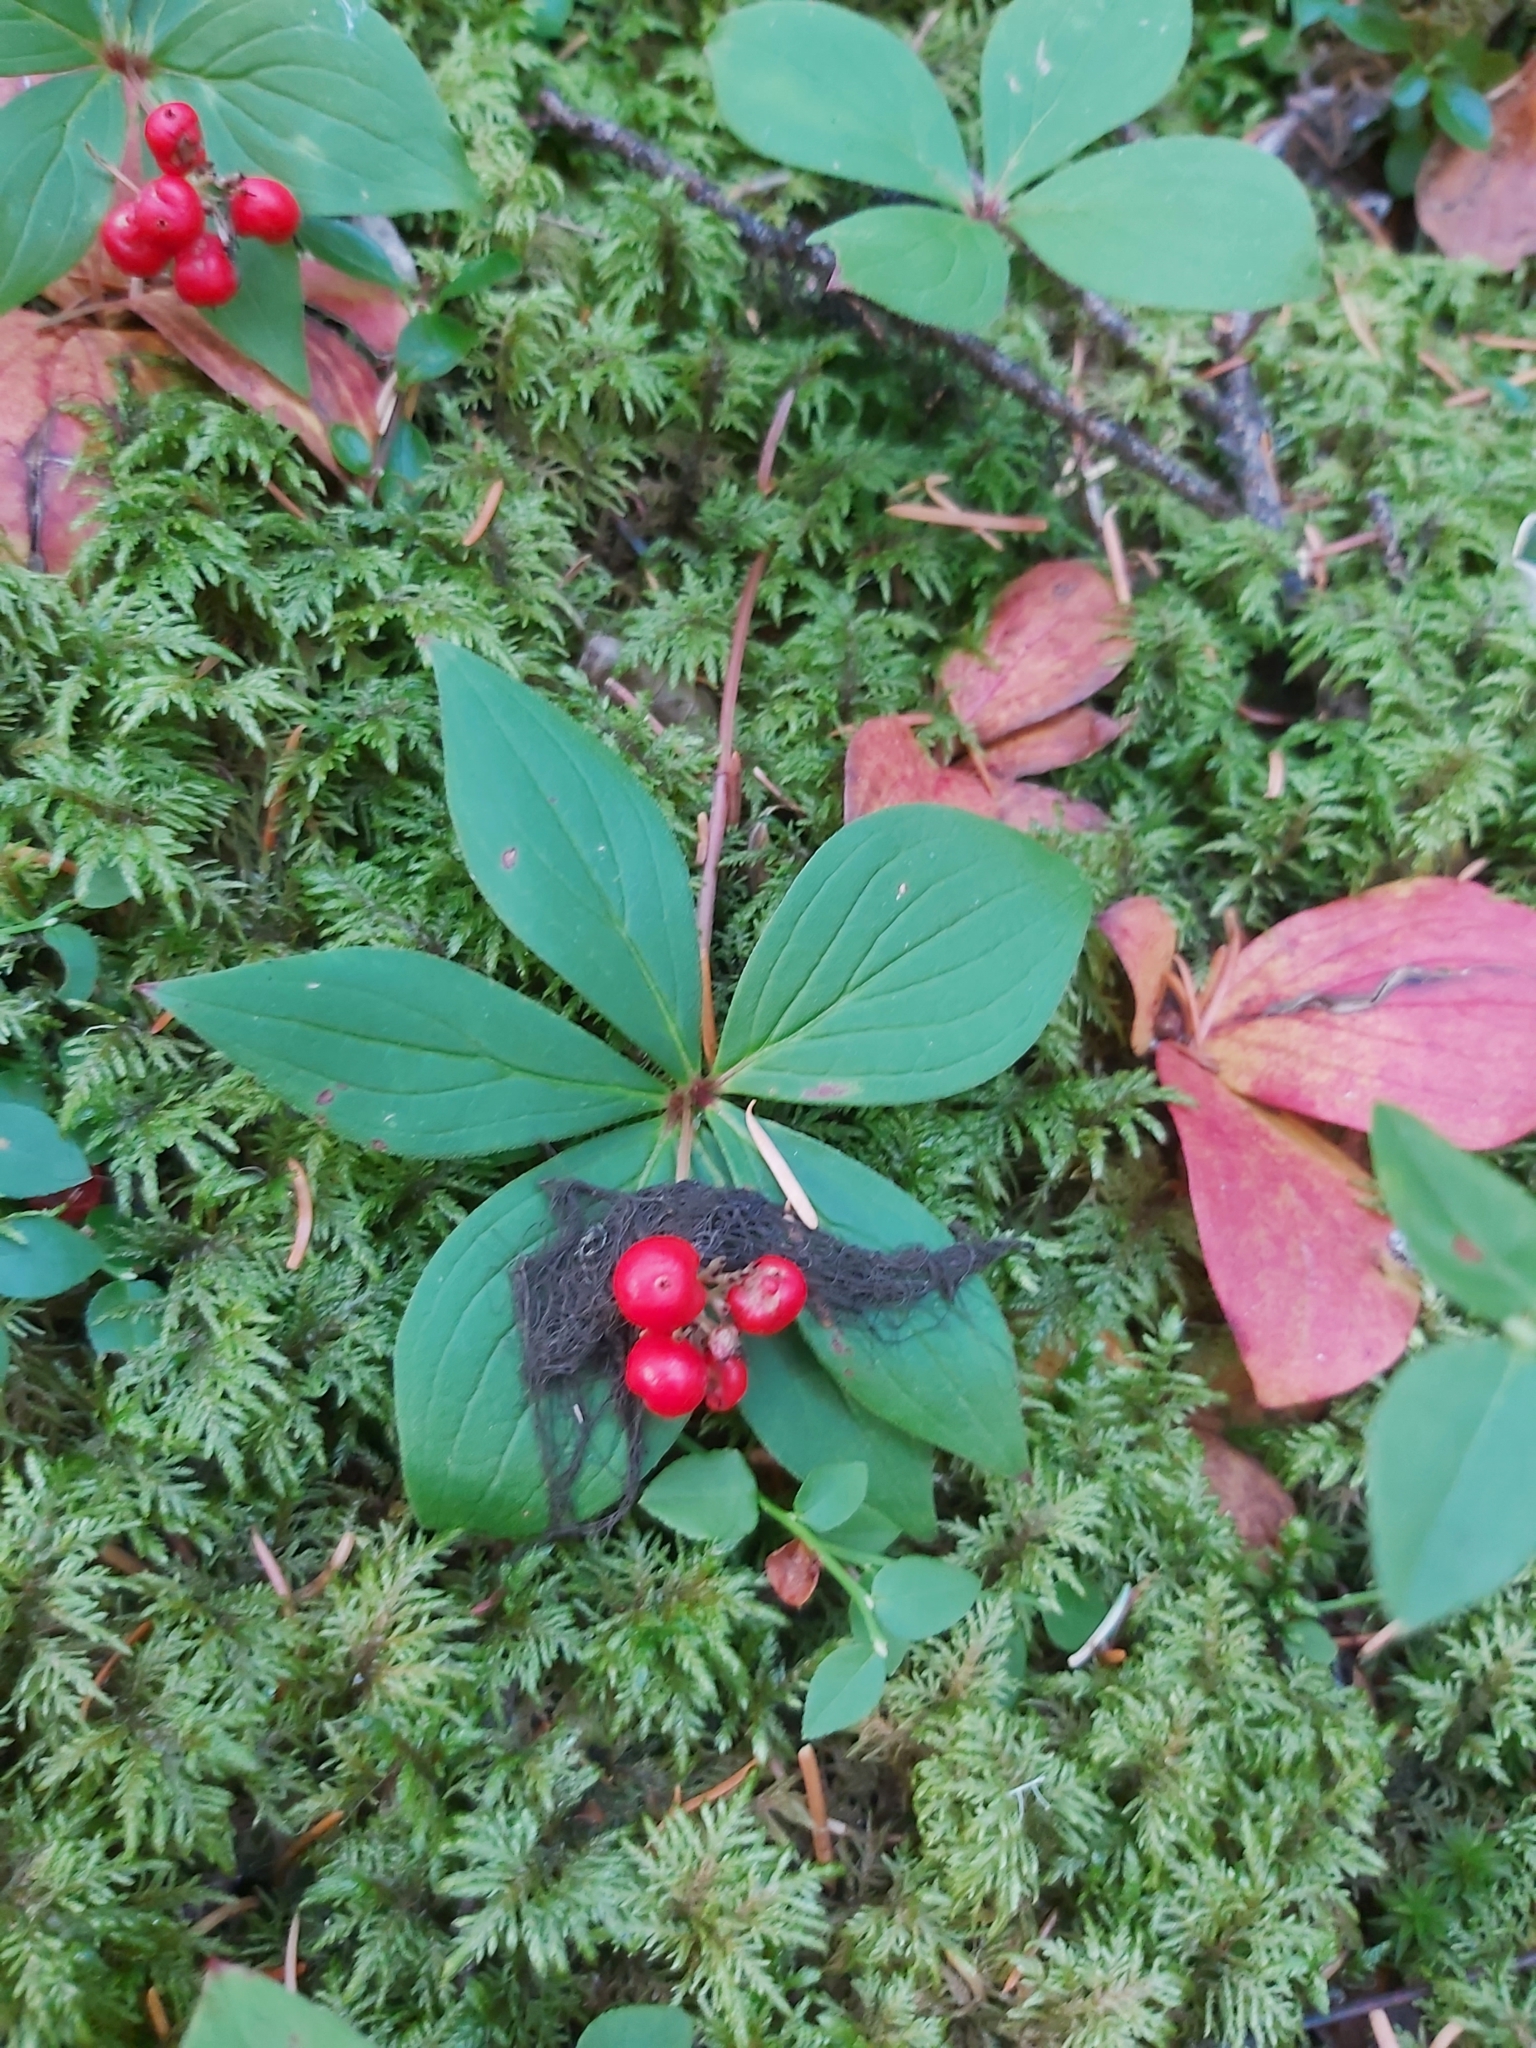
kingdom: Plantae
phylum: Tracheophyta
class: Magnoliopsida
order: Cornales
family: Cornaceae
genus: Cornus
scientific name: Cornus canadensis
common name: Creeping dogwood
